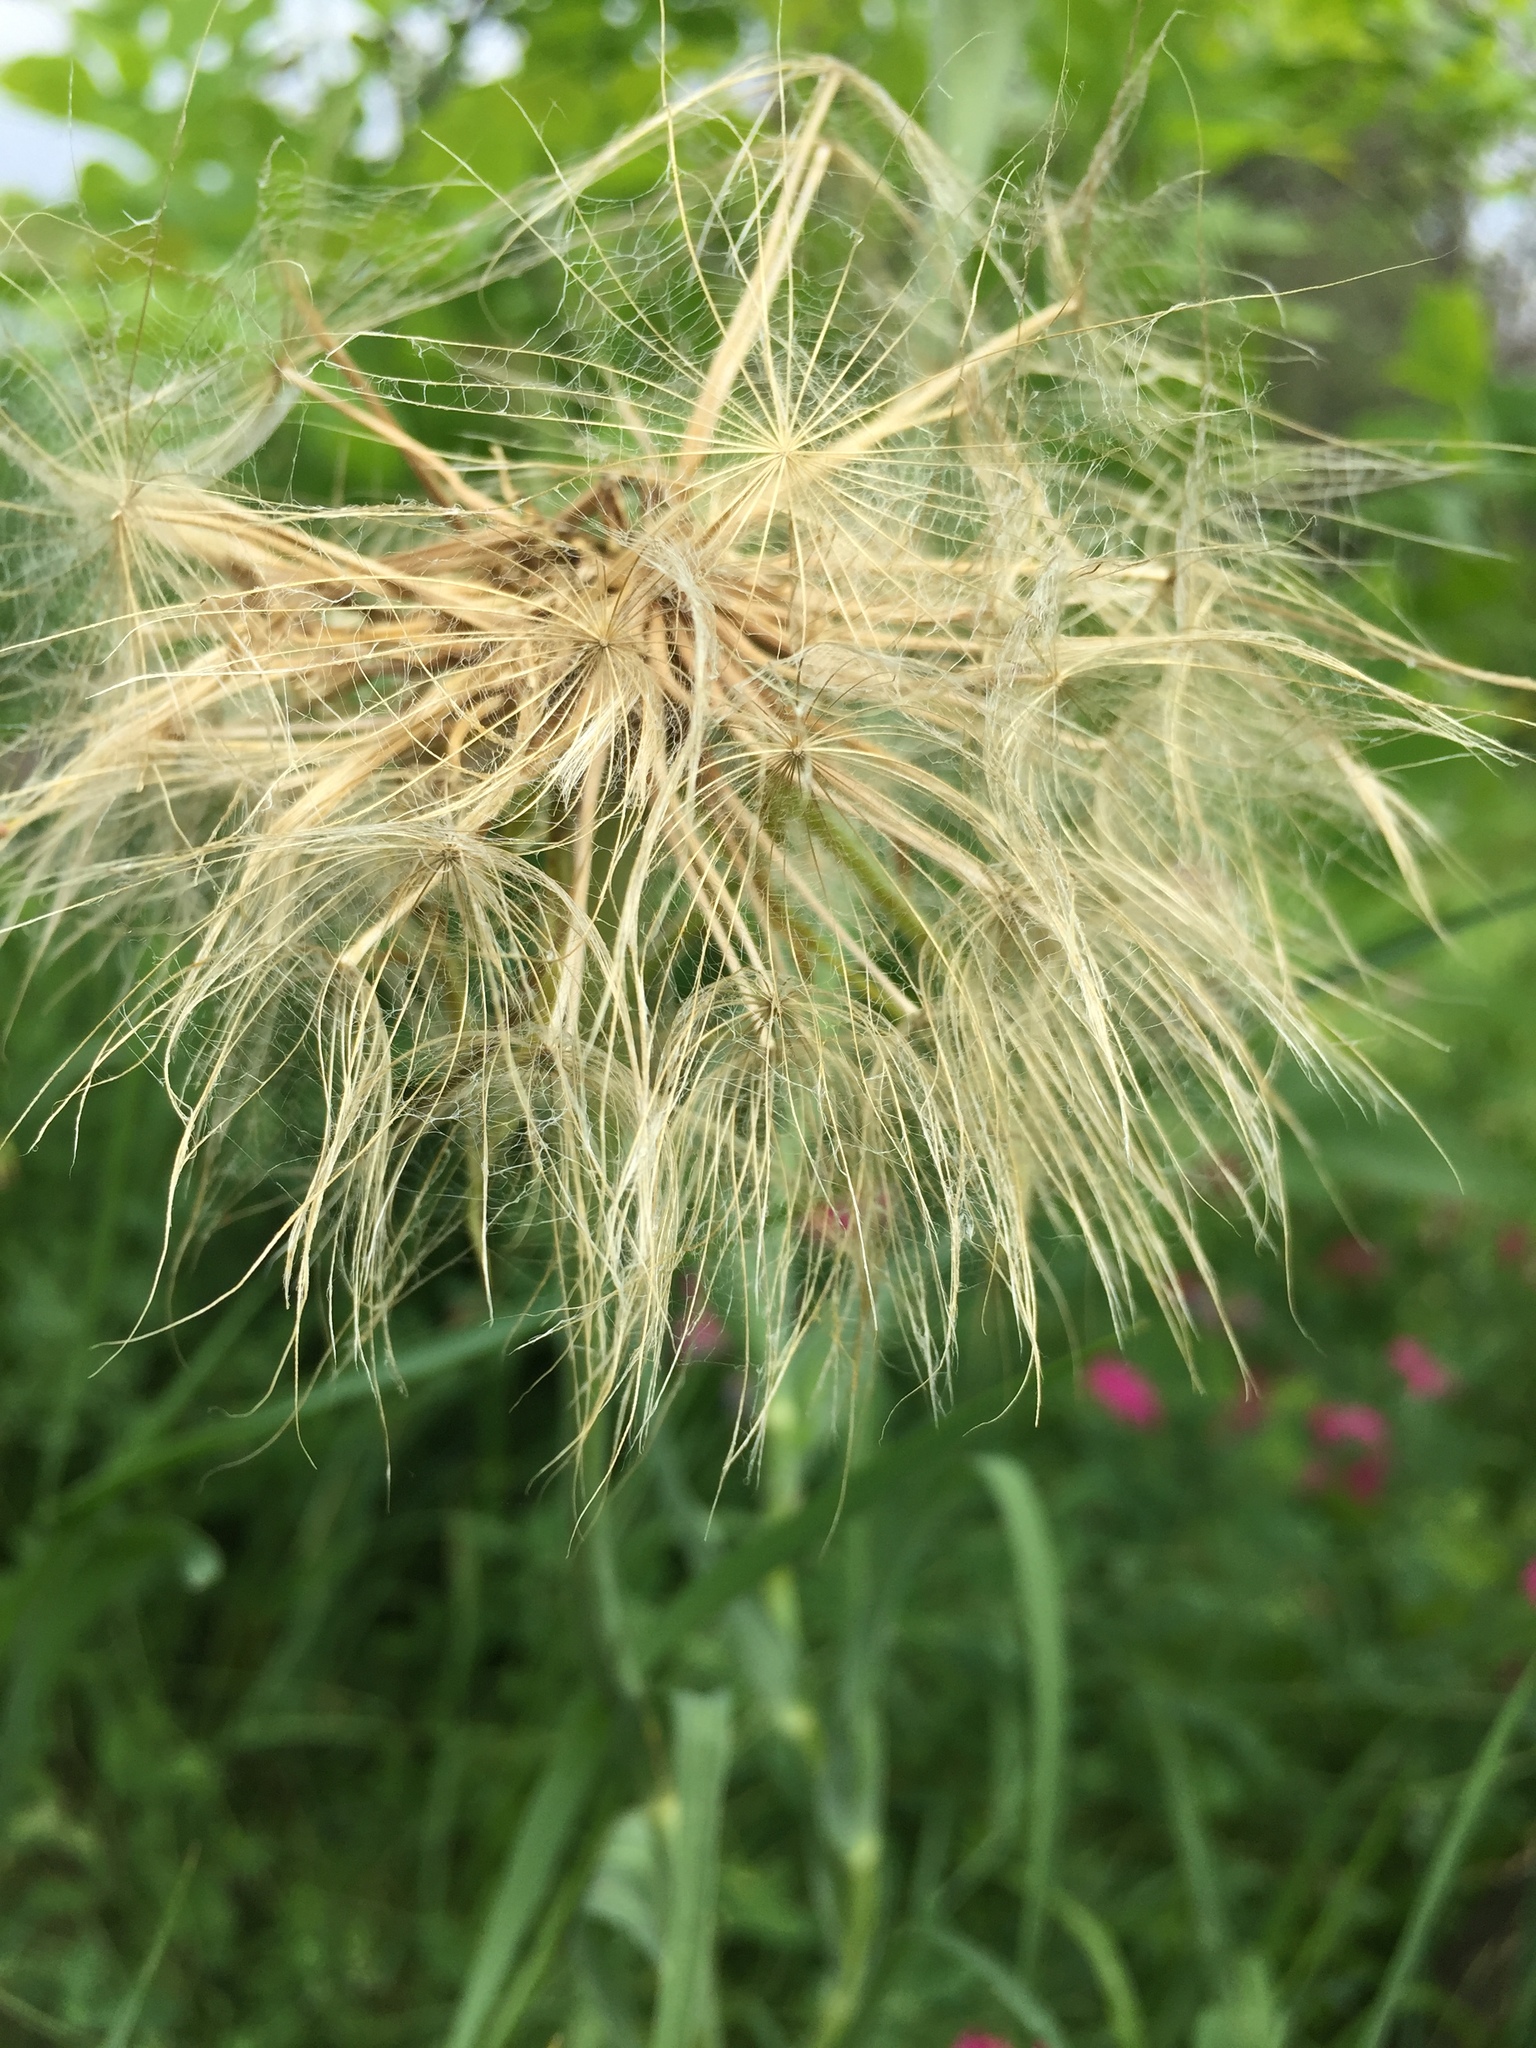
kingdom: Plantae
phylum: Tracheophyta
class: Magnoliopsida
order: Asterales
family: Asteraceae
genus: Tragopogon
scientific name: Tragopogon dubius
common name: Yellow salsify
